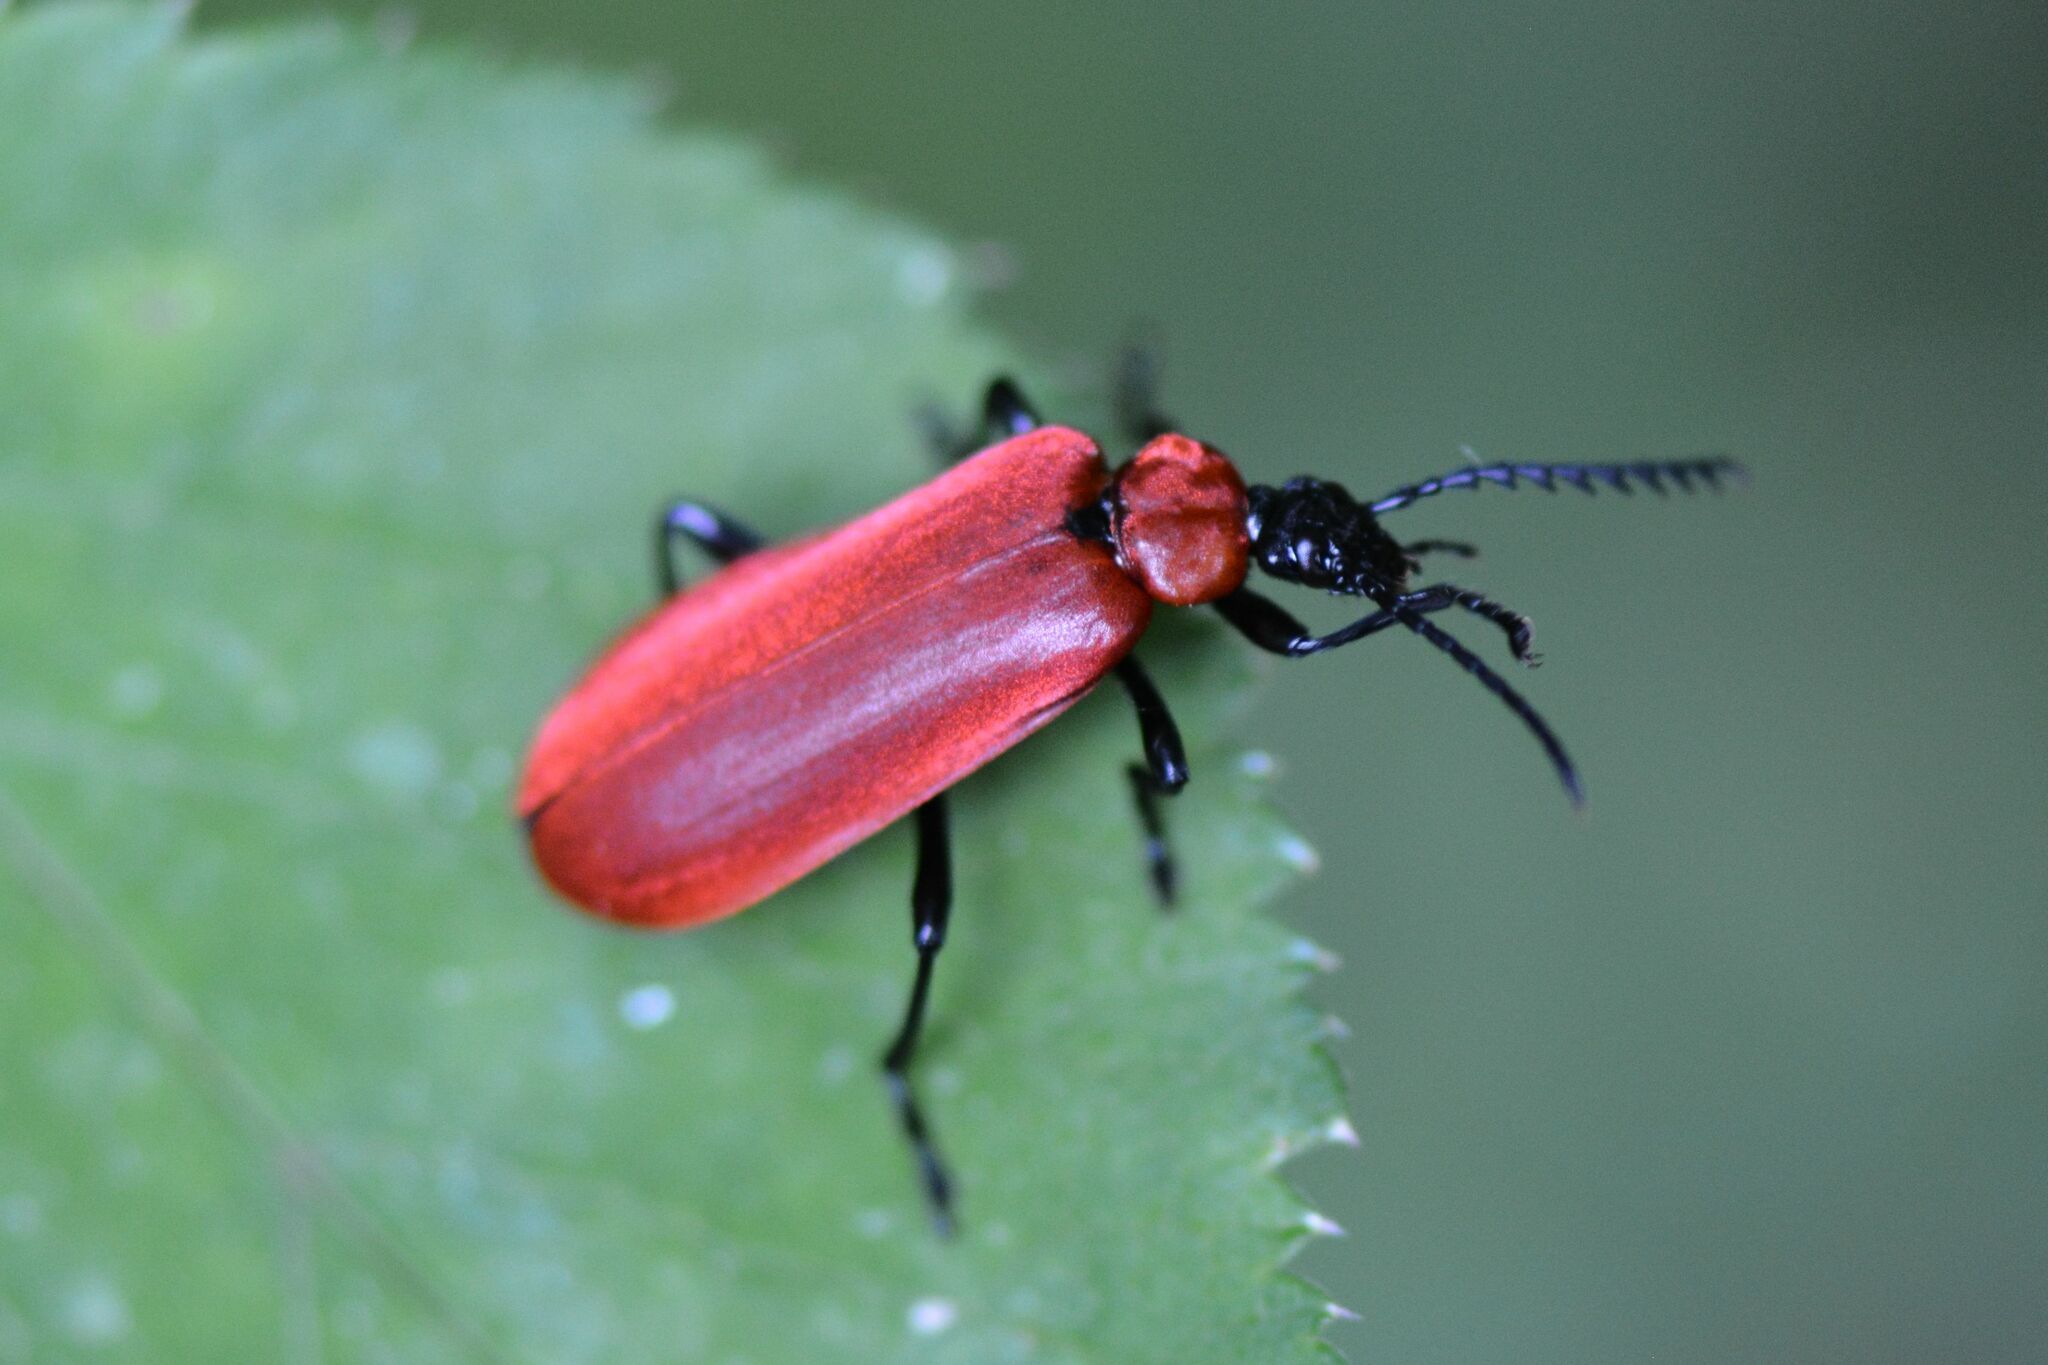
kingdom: Animalia
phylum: Arthropoda
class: Insecta
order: Coleoptera
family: Pyrochroidae
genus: Pyrochroa
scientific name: Pyrochroa coccinea
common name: Black-headed cardinal beetle
